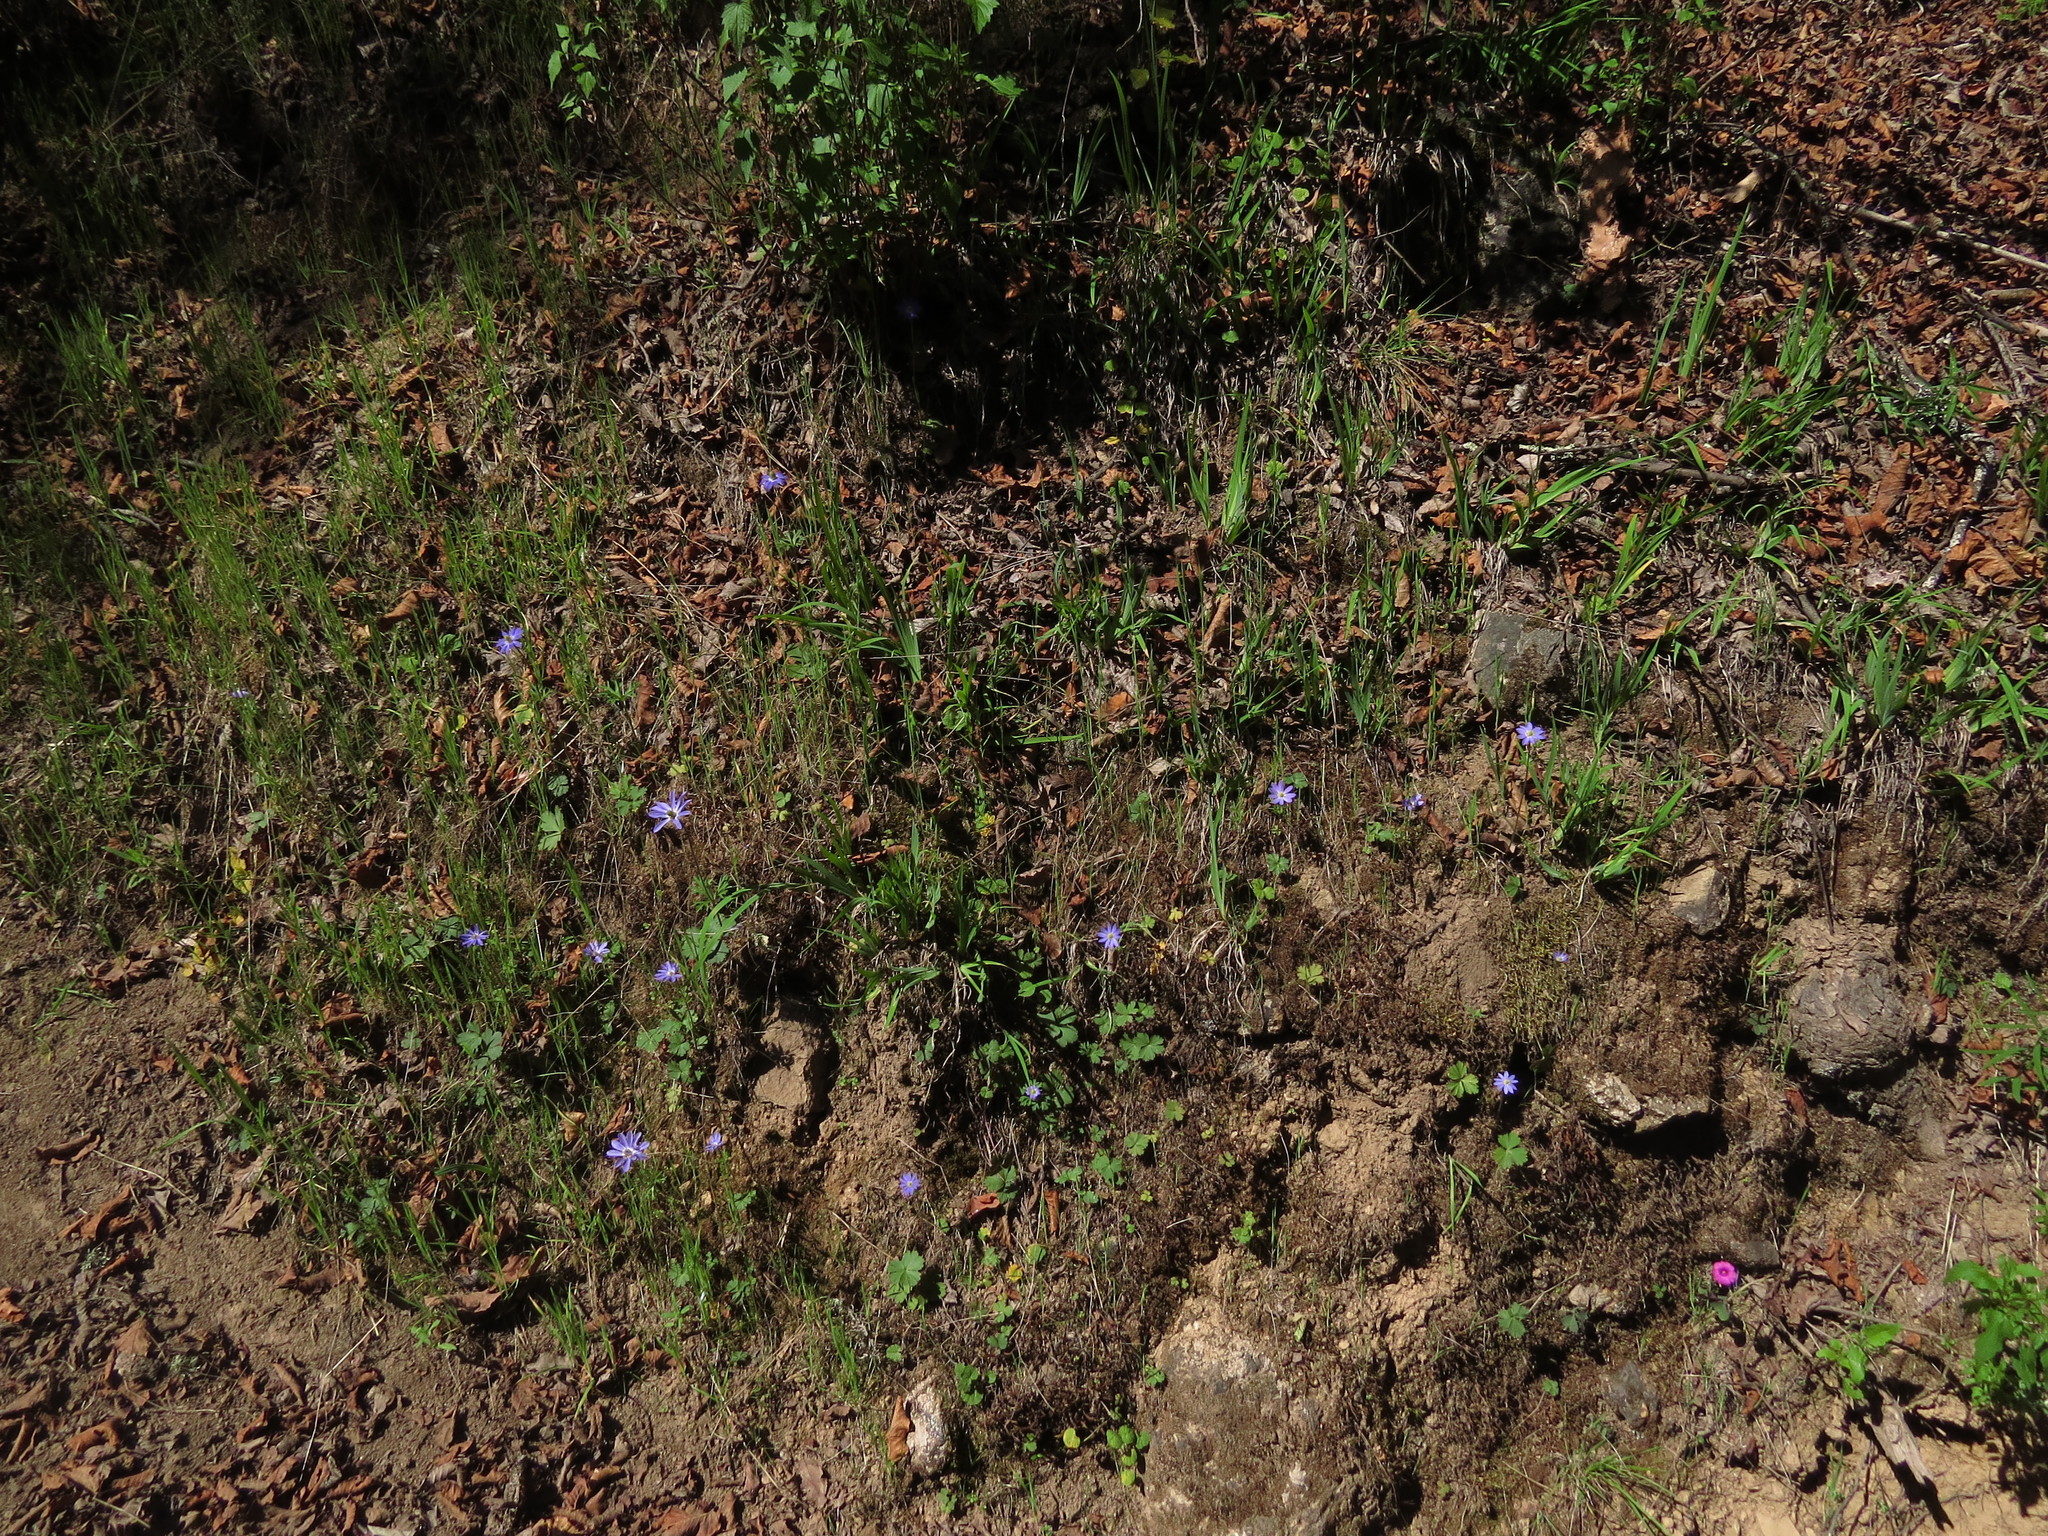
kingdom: Plantae
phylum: Tracheophyta
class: Magnoliopsida
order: Ranunculales
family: Ranunculaceae
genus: Anemone
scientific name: Anemone decapetala
